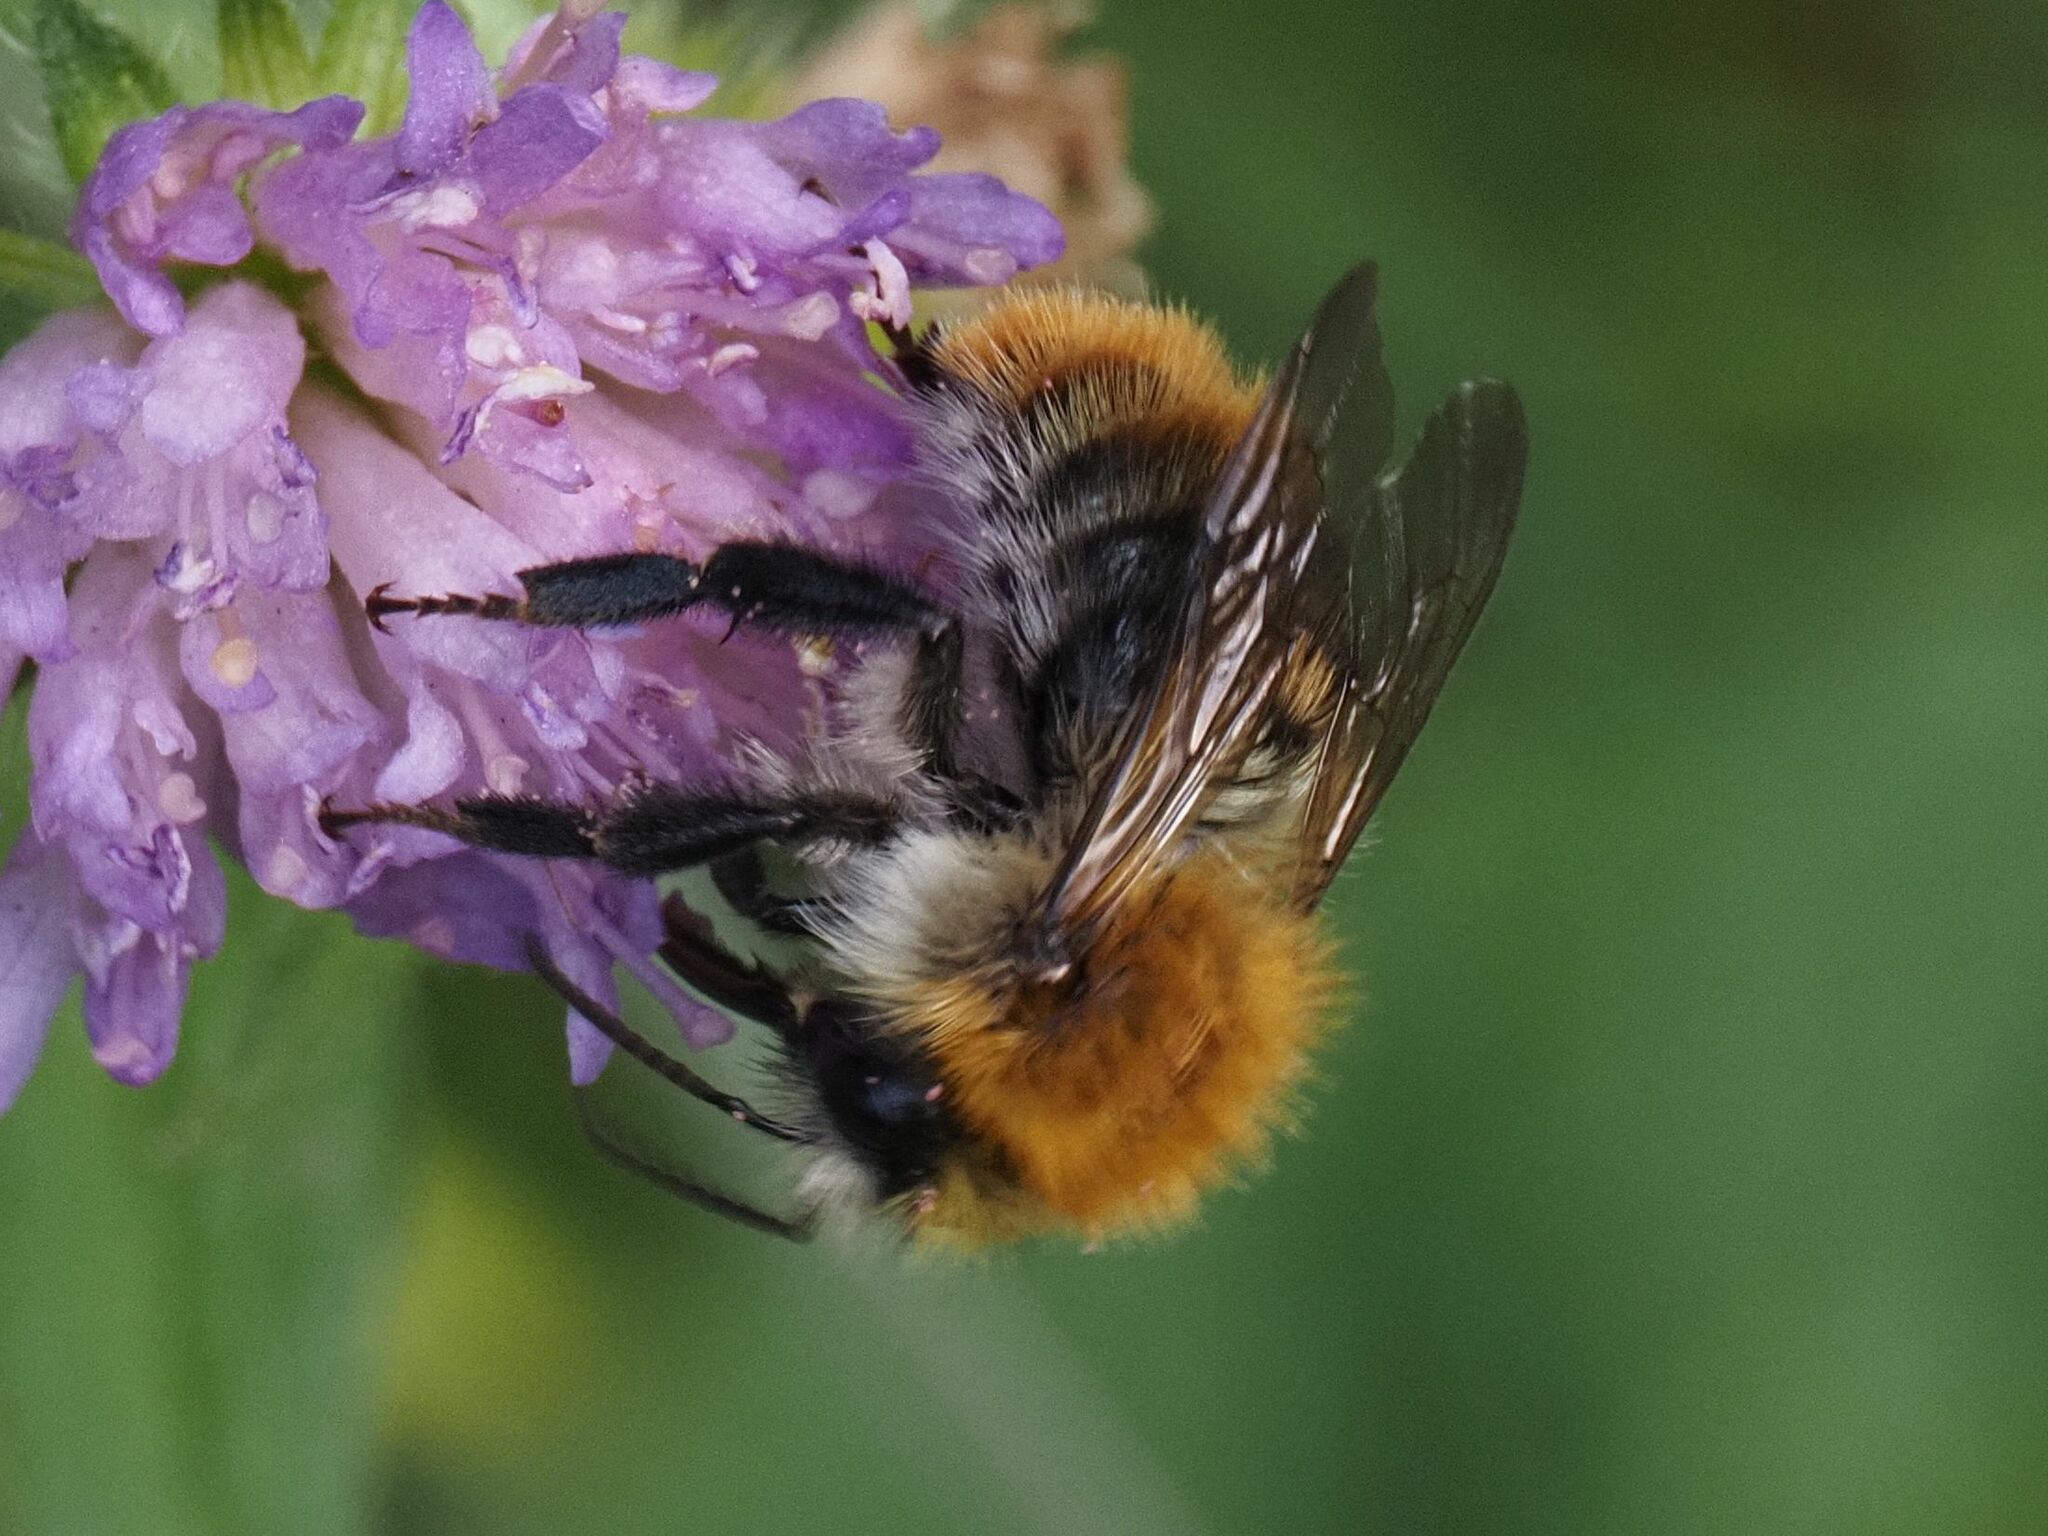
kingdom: Animalia
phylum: Arthropoda
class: Insecta
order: Hymenoptera
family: Apidae
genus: Bombus
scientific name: Bombus pascuorum
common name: Common carder bee
